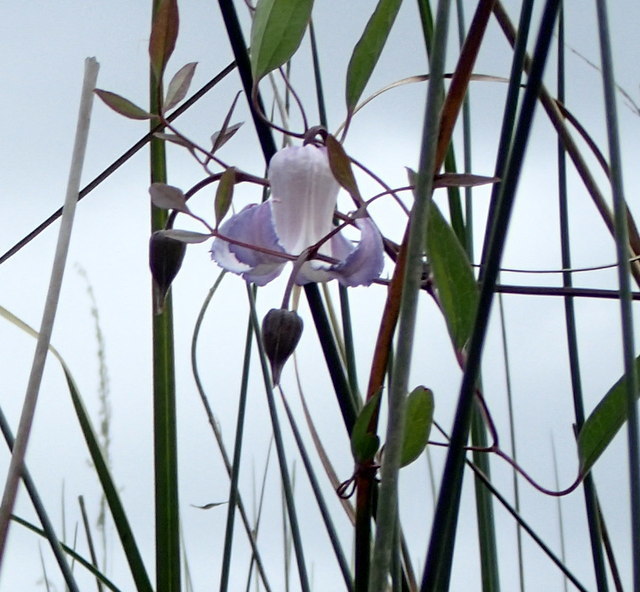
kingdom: Plantae
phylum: Tracheophyta
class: Magnoliopsida
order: Ranunculales
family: Ranunculaceae
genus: Clematis
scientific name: Clematis crispa
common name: Curly clematis
